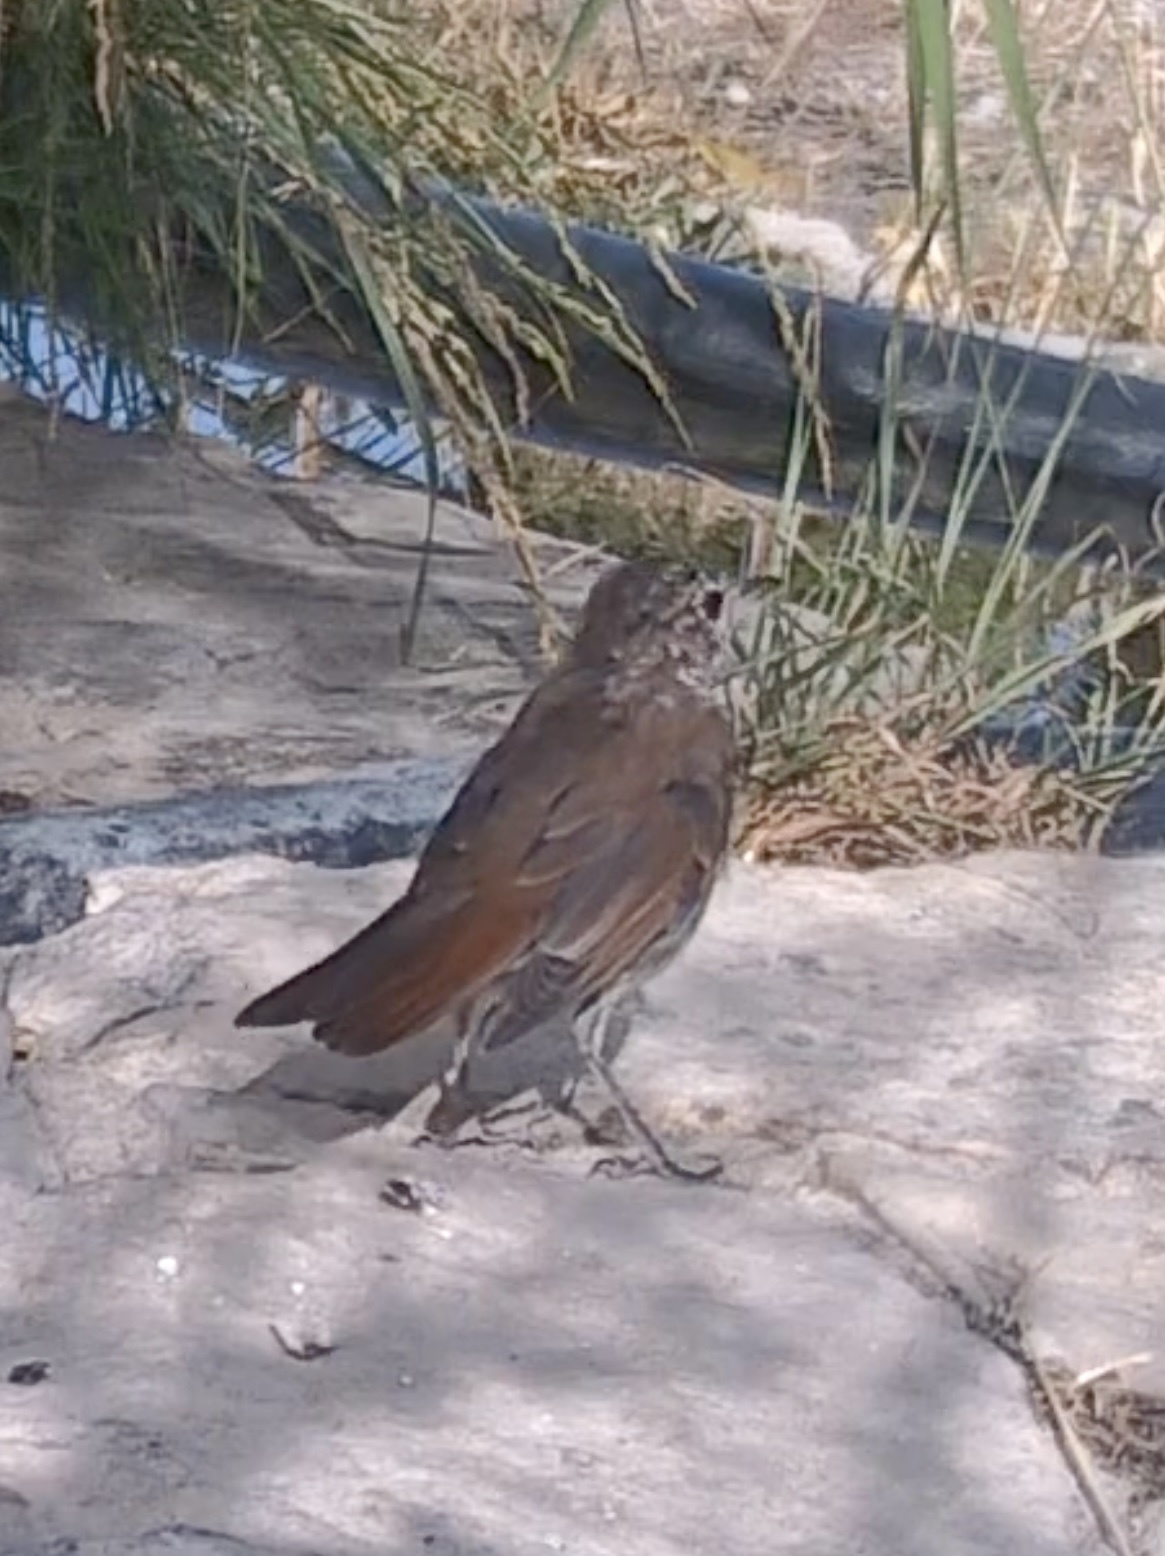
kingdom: Animalia
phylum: Chordata
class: Aves
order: Passeriformes
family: Muscicapidae
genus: Luscinia
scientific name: Luscinia megarhynchos
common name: Common nightingale
